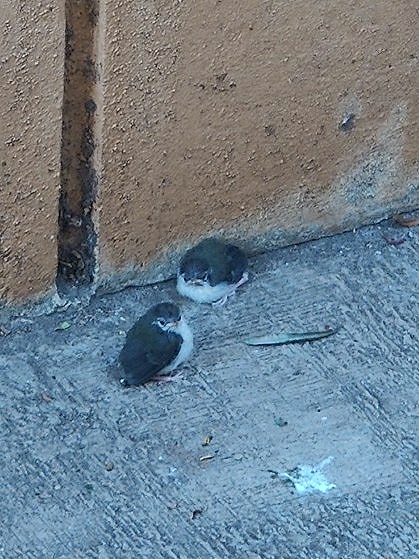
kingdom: Animalia
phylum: Chordata
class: Aves
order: Passeriformes
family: Cisticolidae
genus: Orthotomus
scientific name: Orthotomus sutorius
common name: Common tailorbird
